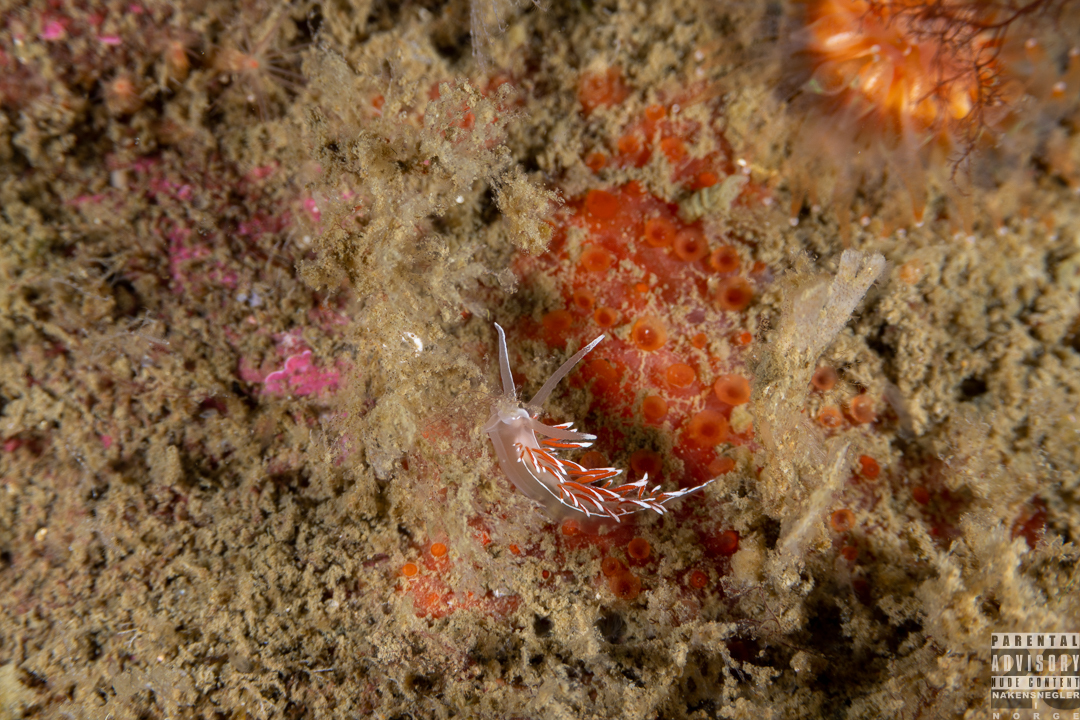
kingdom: Animalia
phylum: Mollusca
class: Gastropoda
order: Nudibranchia
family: Coryphellidae
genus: Coryphella
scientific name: Coryphella lineata
